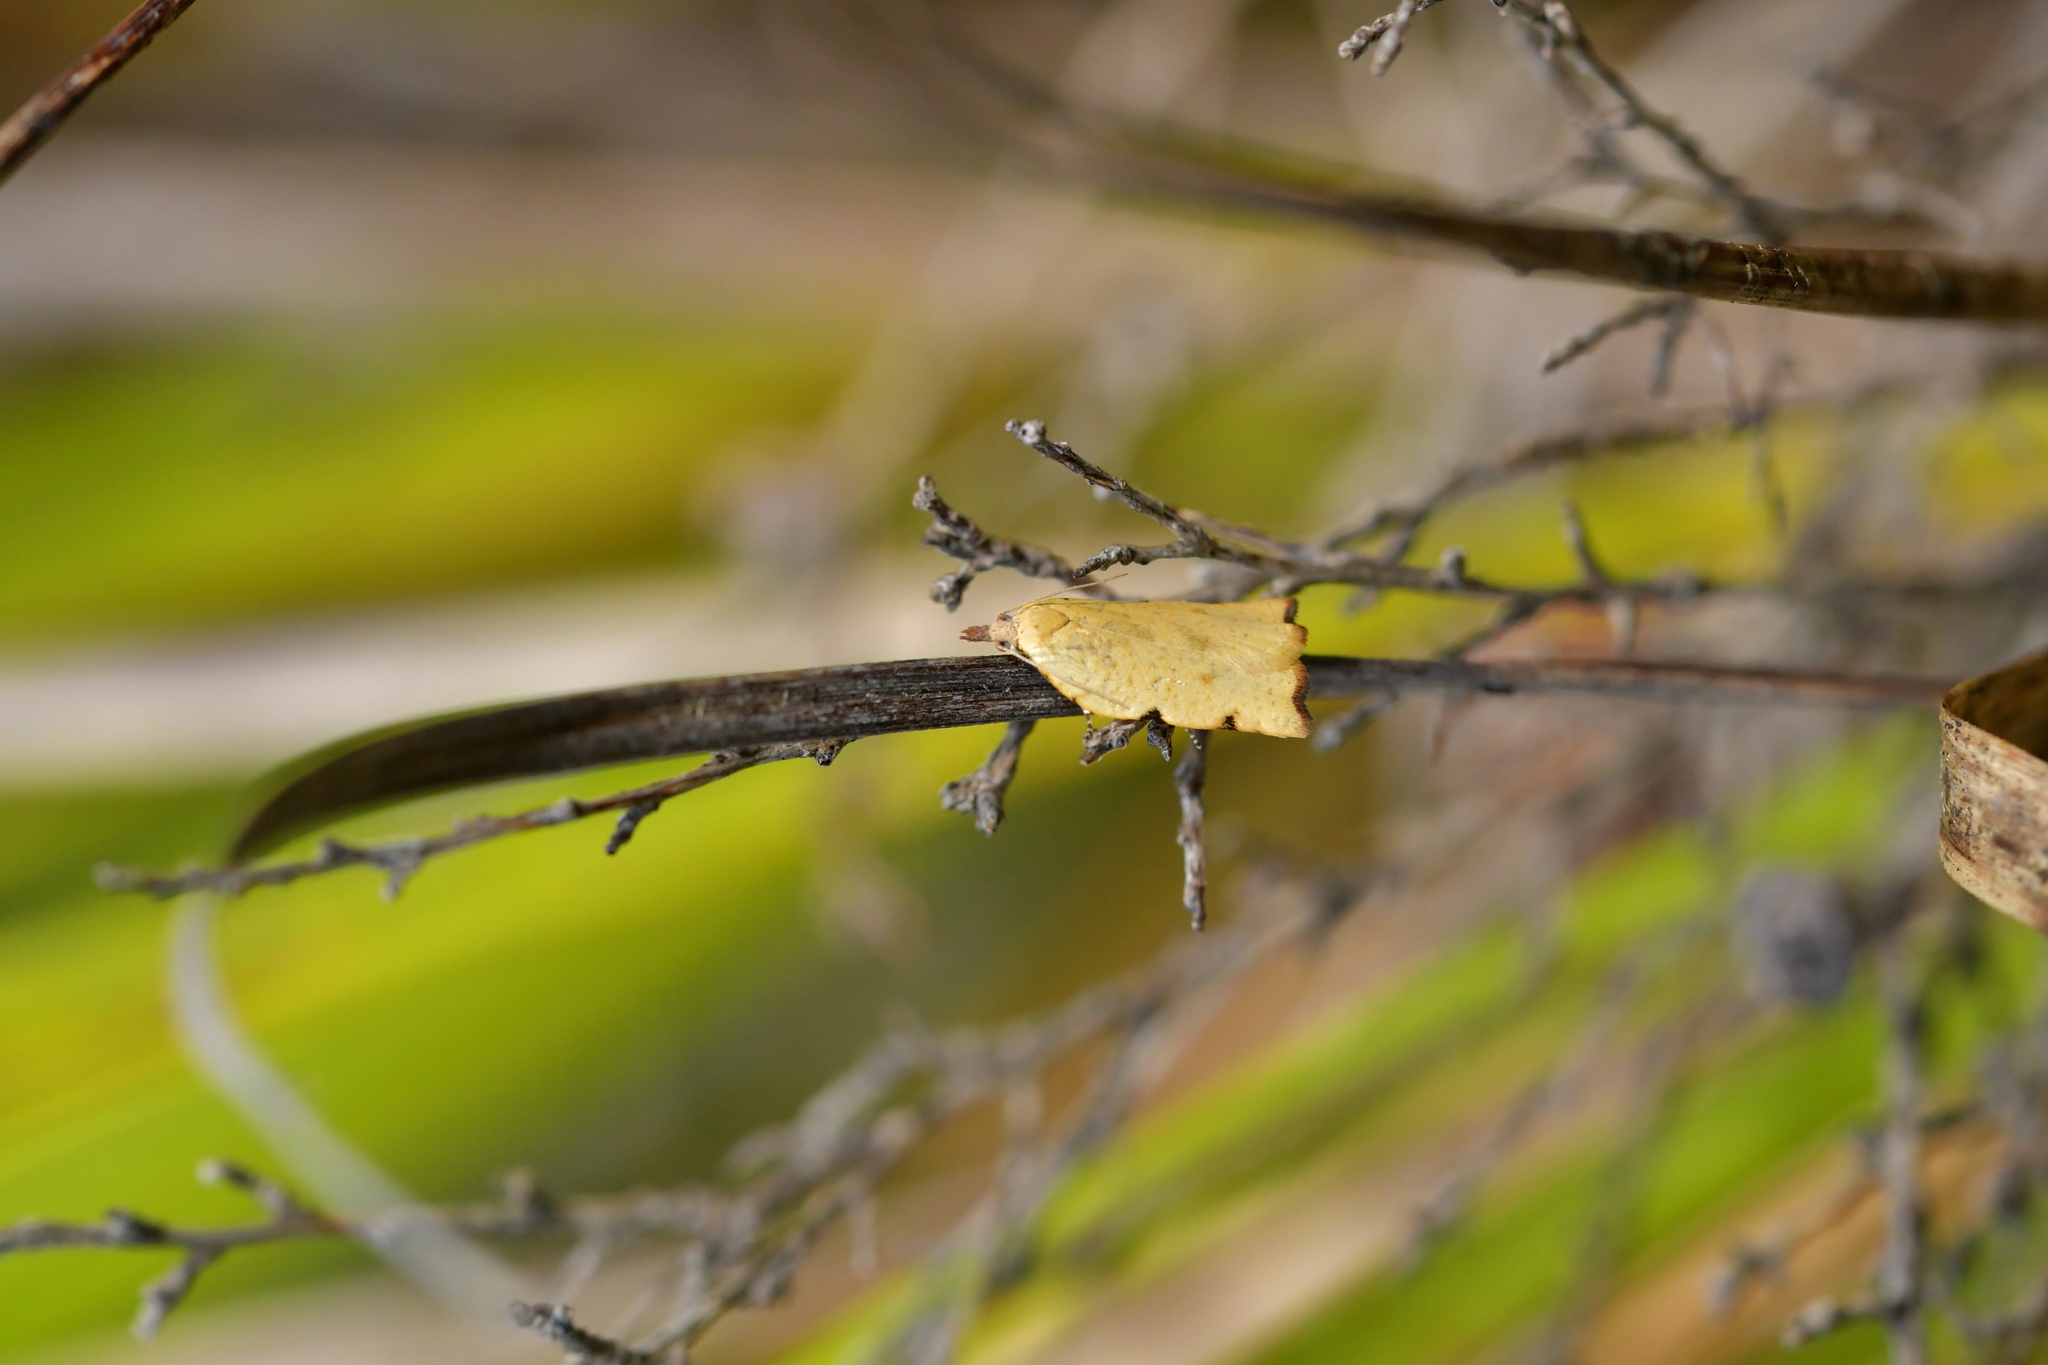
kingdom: Animalia
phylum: Arthropoda
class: Insecta
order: Lepidoptera
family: Tortricidae
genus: Apoctena
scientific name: Apoctena flavescens
